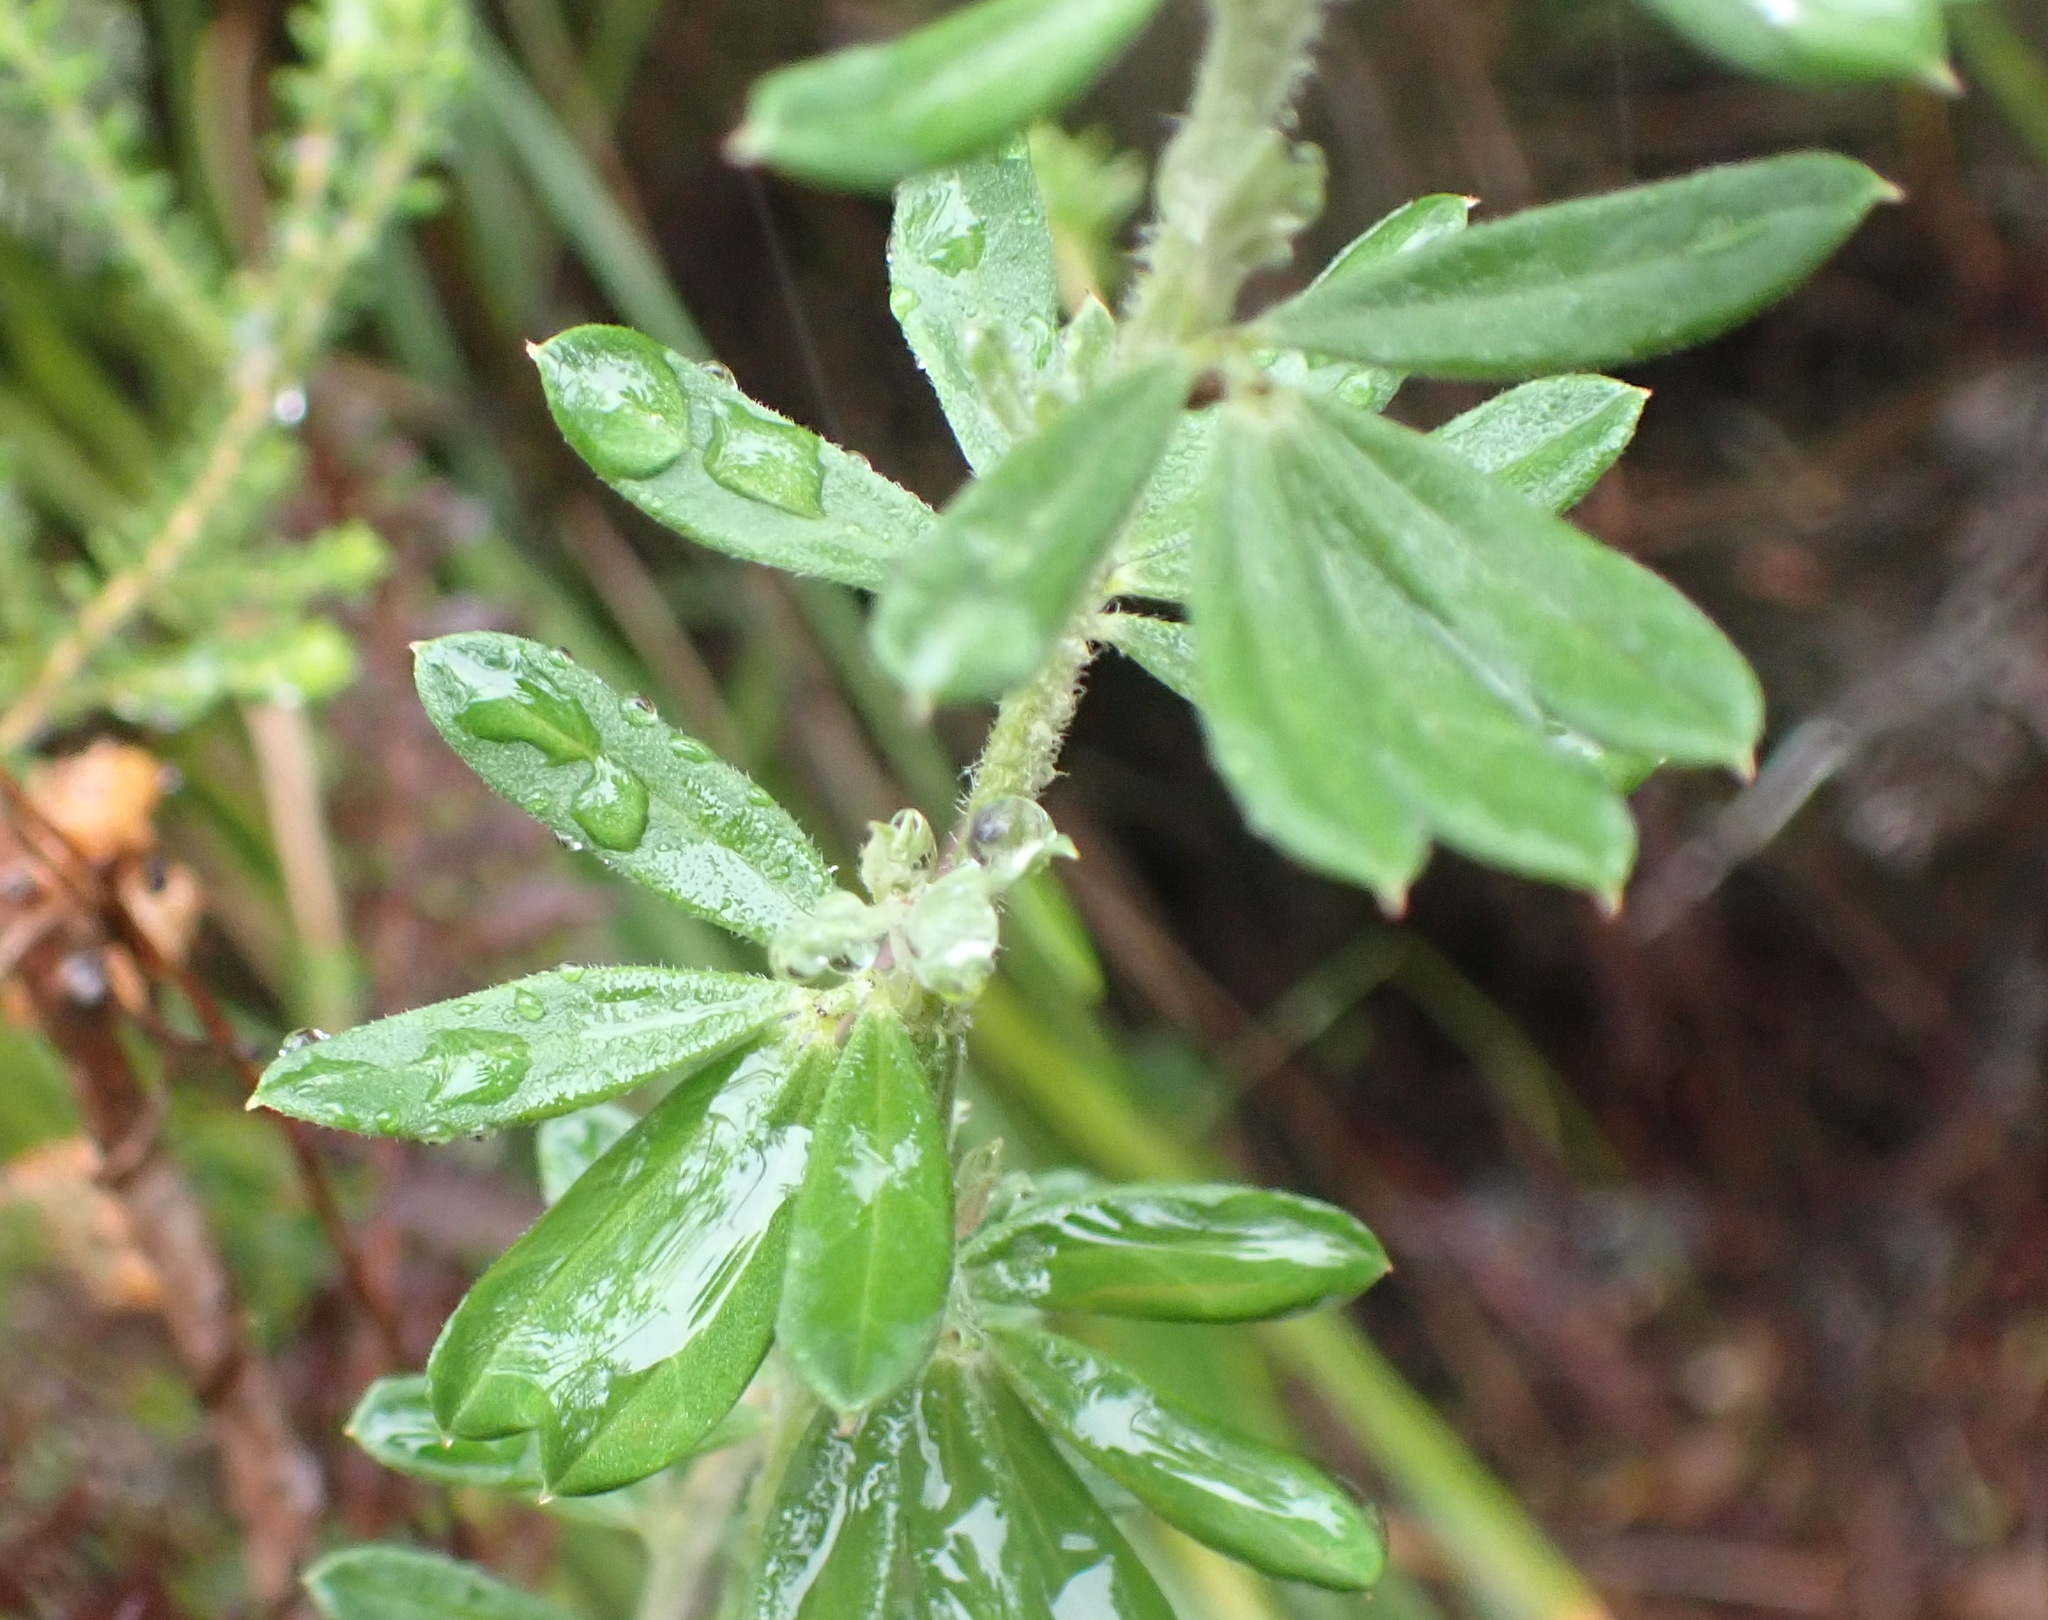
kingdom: Plantae
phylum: Tracheophyta
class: Magnoliopsida
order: Fabales
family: Fabaceae
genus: Indigofera
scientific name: Indigofera hispida
